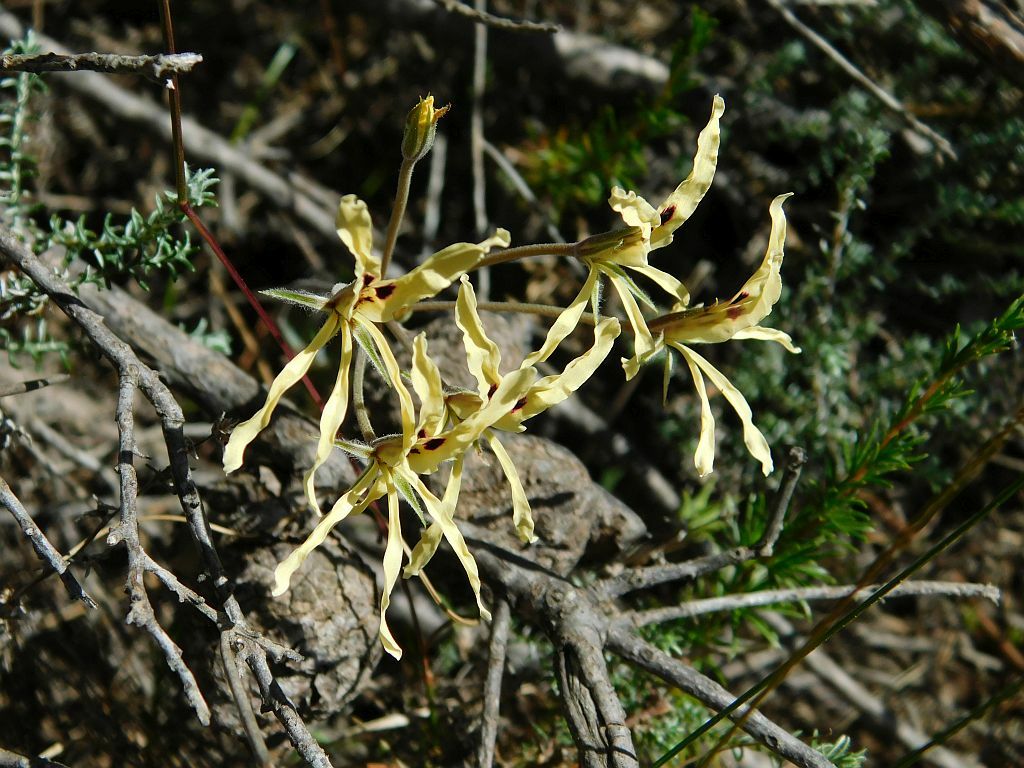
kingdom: Plantae
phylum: Tracheophyta
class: Magnoliopsida
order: Geraniales
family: Geraniaceae
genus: Pelargonium
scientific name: Pelargonium fergusoniae
